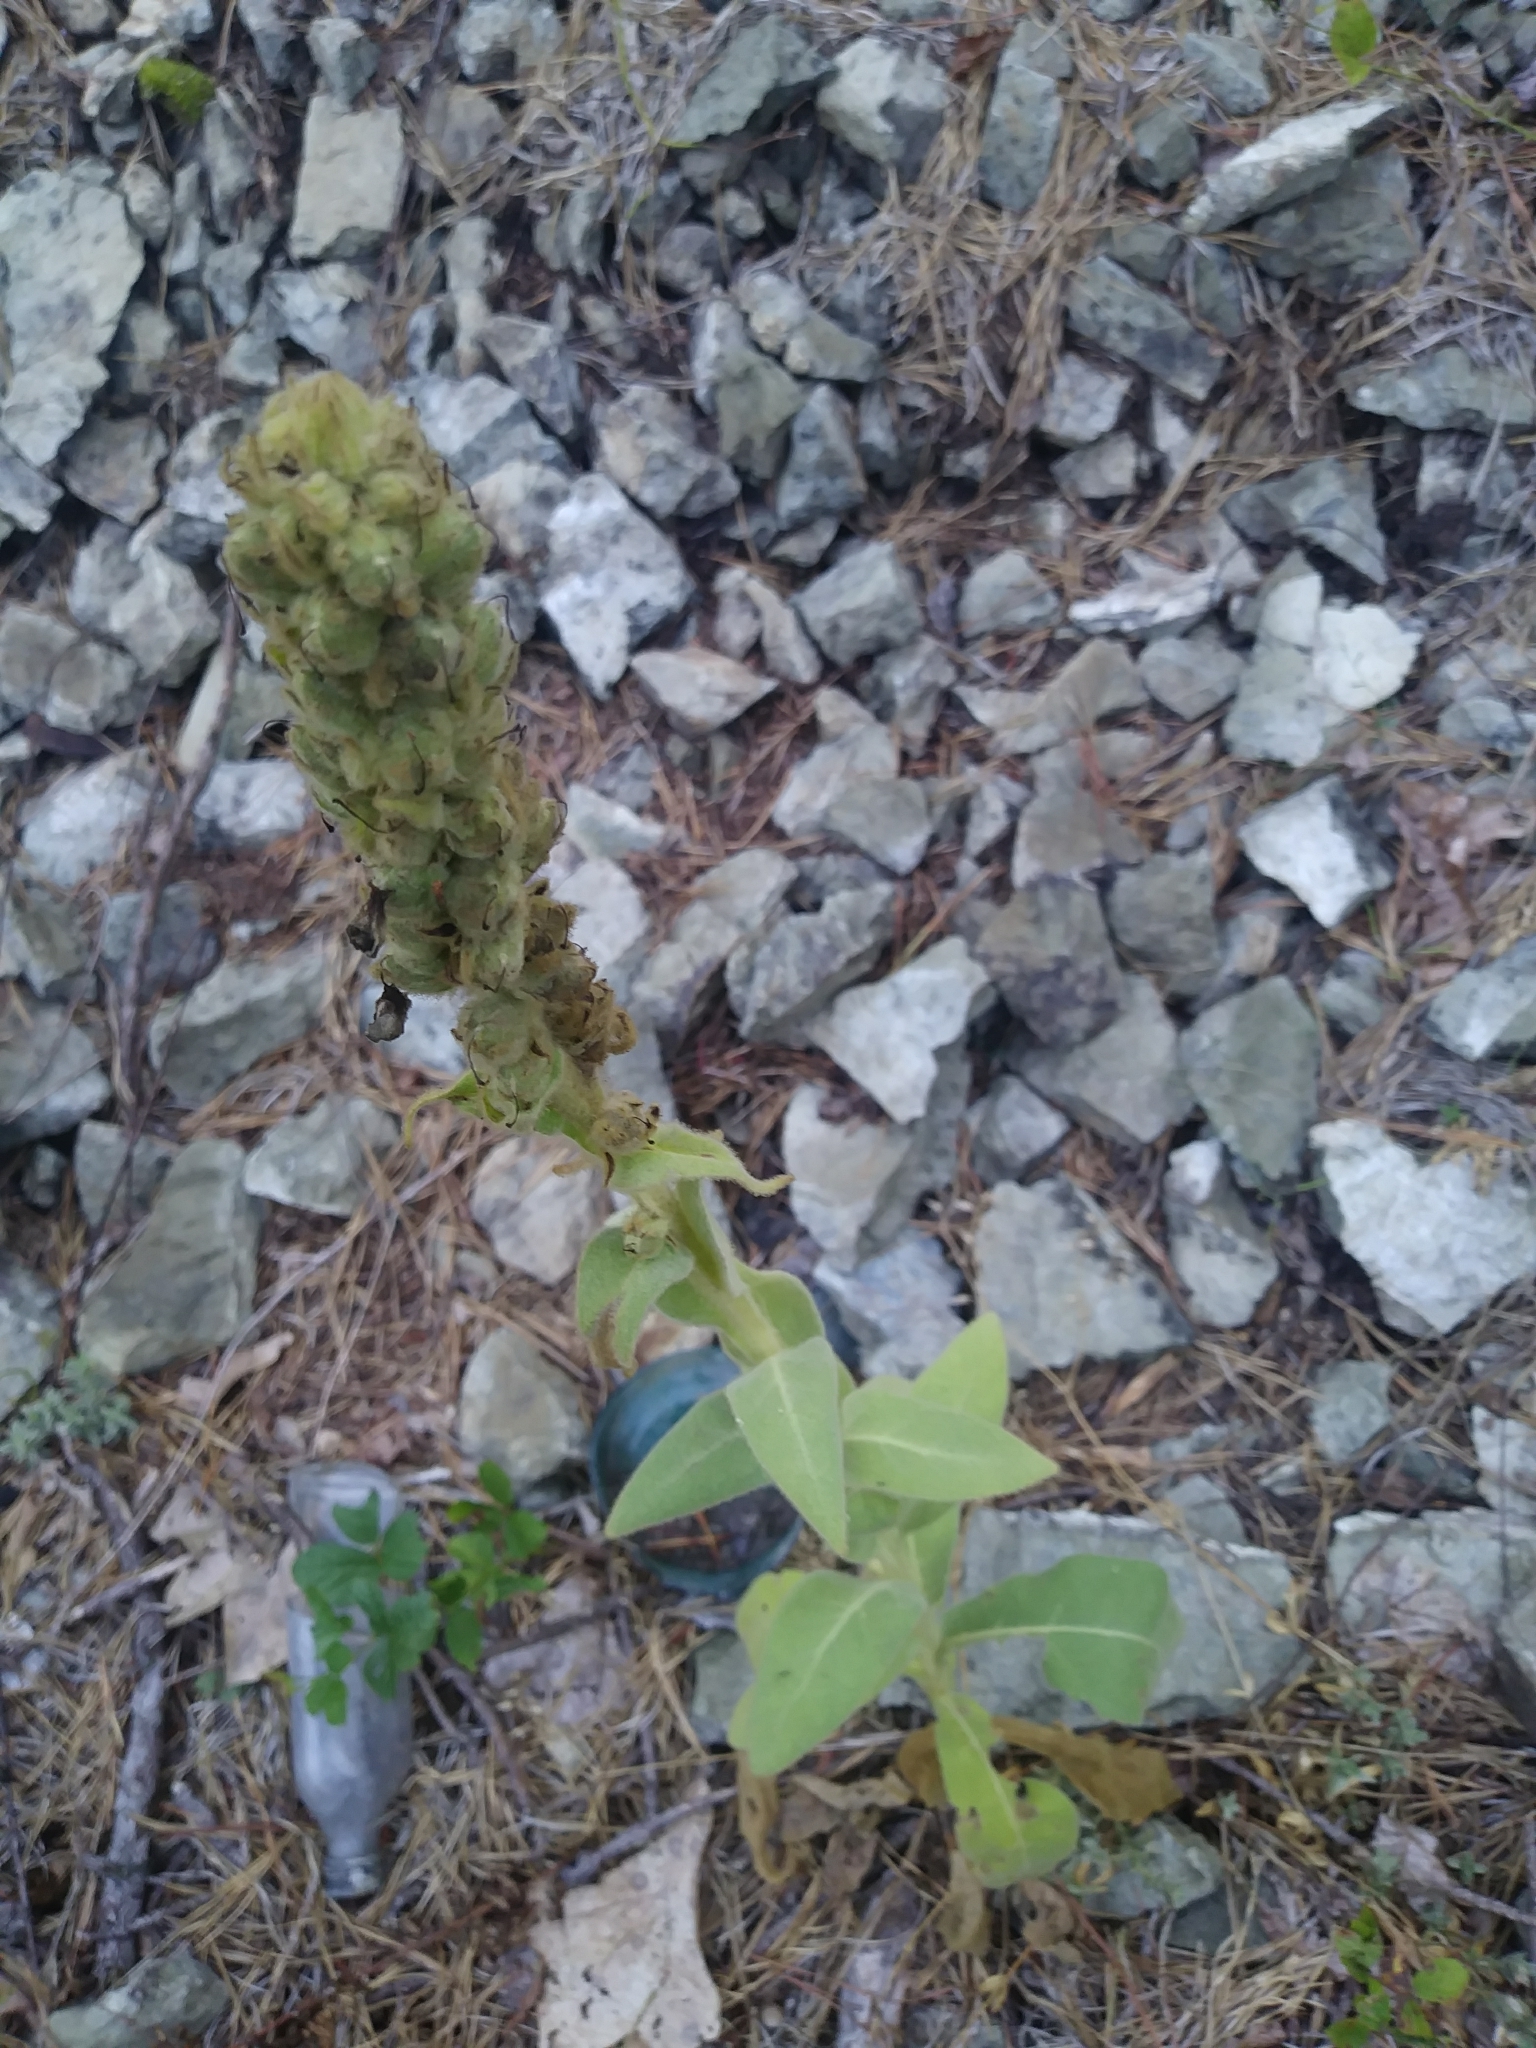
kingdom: Plantae
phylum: Tracheophyta
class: Magnoliopsida
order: Lamiales
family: Scrophulariaceae
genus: Verbascum
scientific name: Verbascum thapsus
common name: Common mullein
